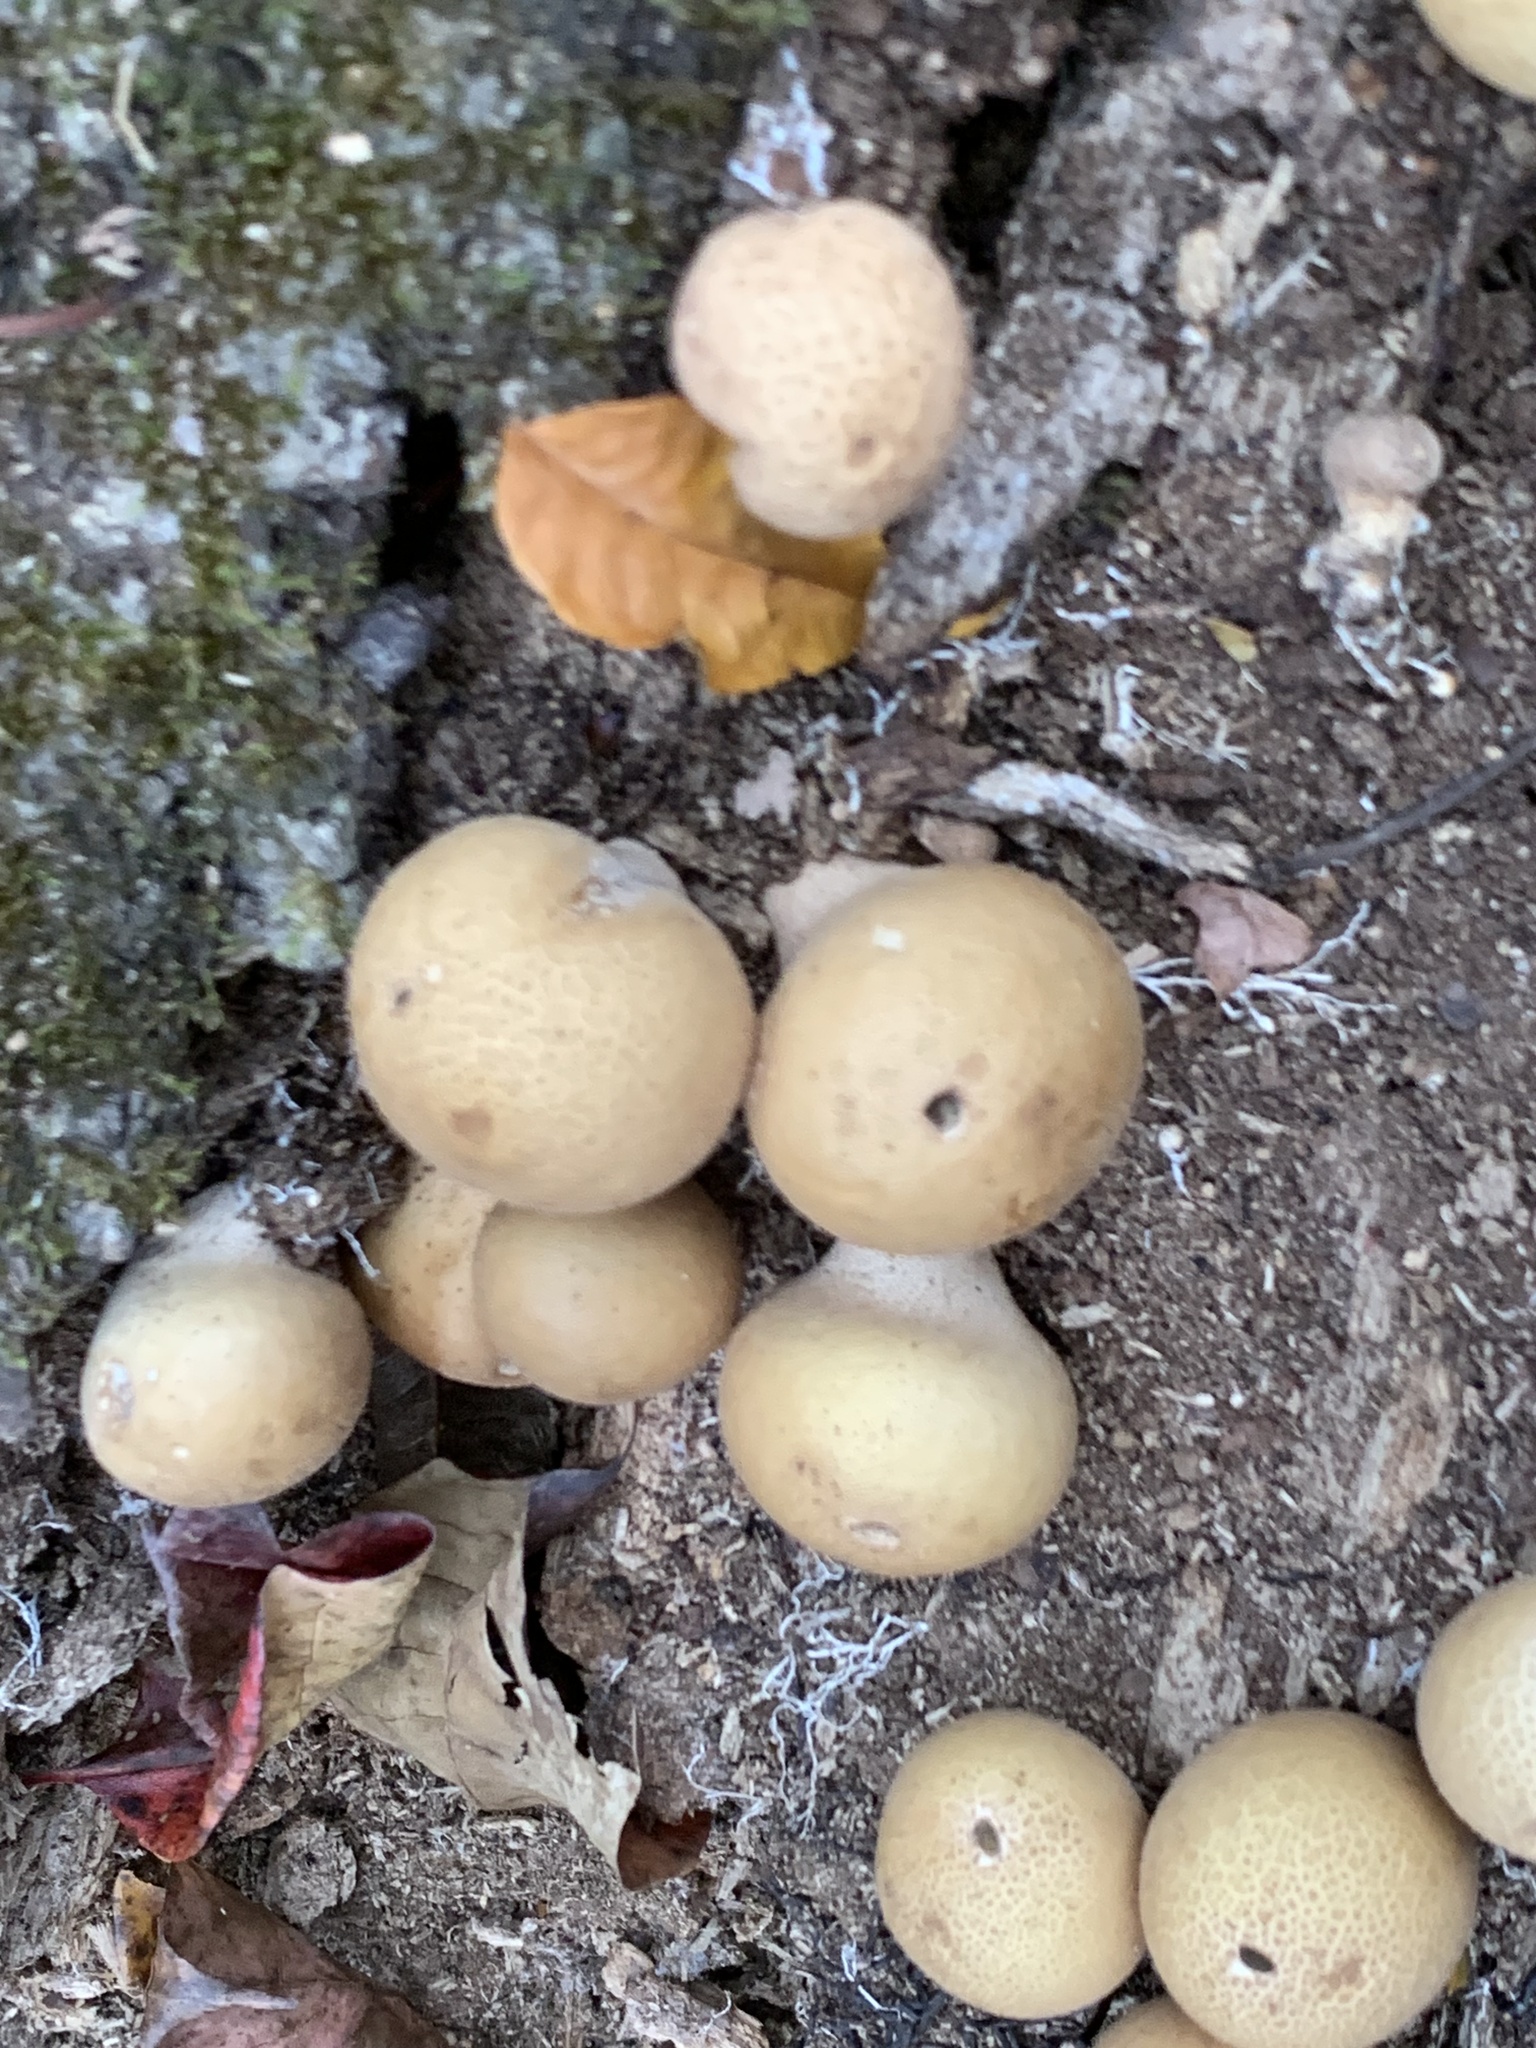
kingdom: Fungi
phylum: Basidiomycota
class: Agaricomycetes
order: Agaricales
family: Lycoperdaceae
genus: Apioperdon
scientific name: Apioperdon pyriforme
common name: Pear-shaped puffball
